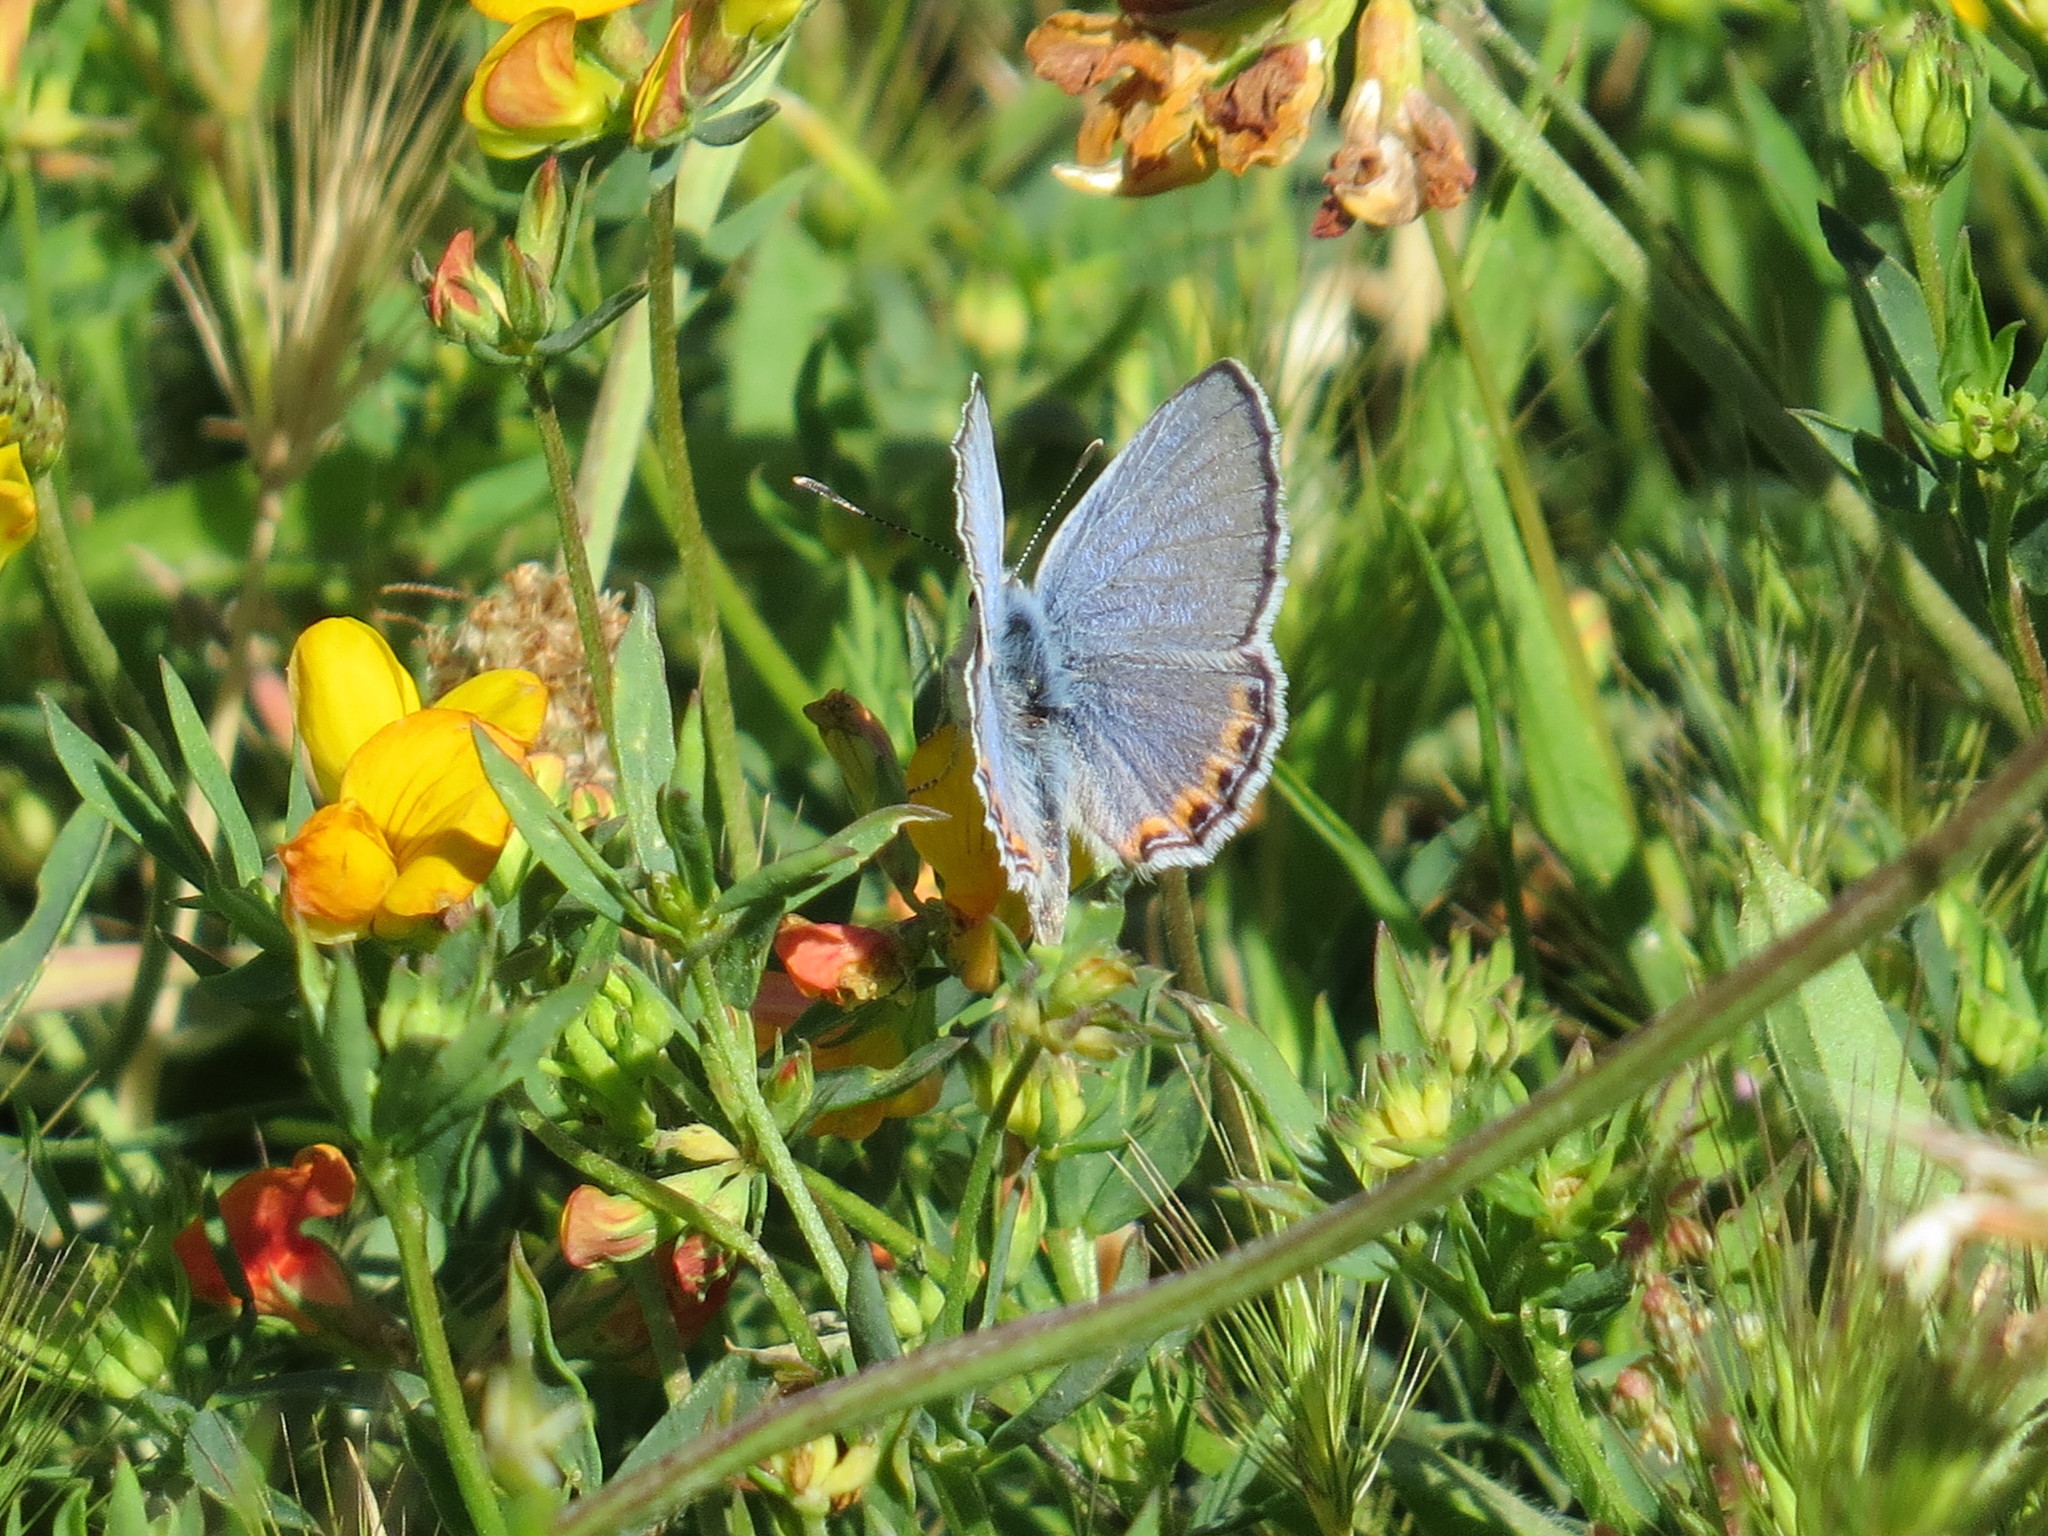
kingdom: Animalia
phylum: Arthropoda
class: Insecta
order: Lepidoptera
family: Lycaenidae
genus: Icaricia
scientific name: Icaricia acmon
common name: Acmon blue
